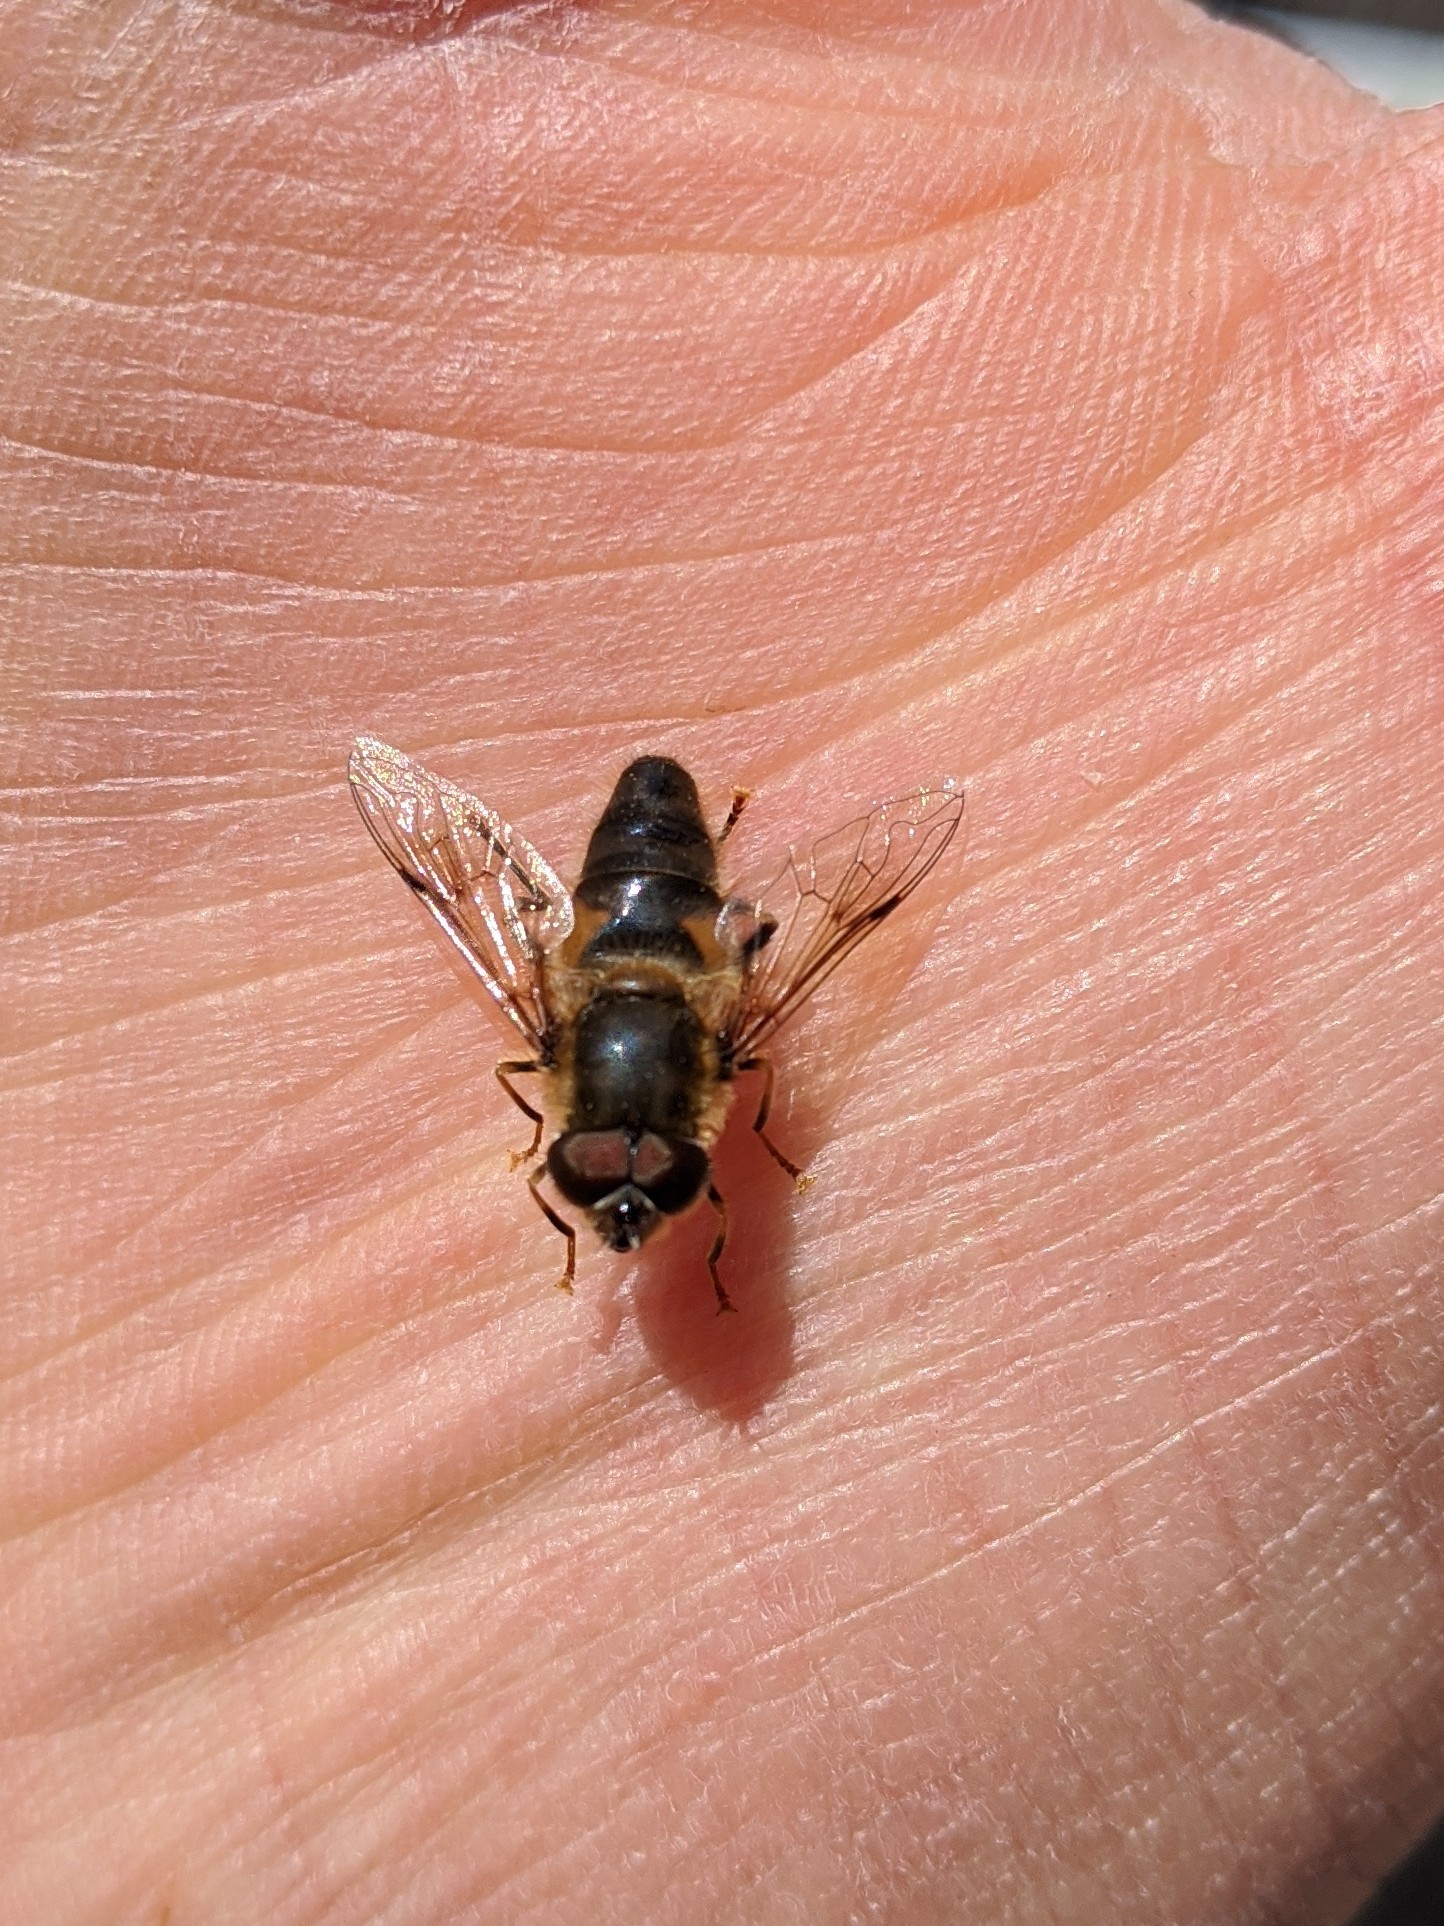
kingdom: Animalia
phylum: Arthropoda
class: Insecta
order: Diptera
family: Syrphidae
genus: Eristalis
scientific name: Eristalis pertinax
